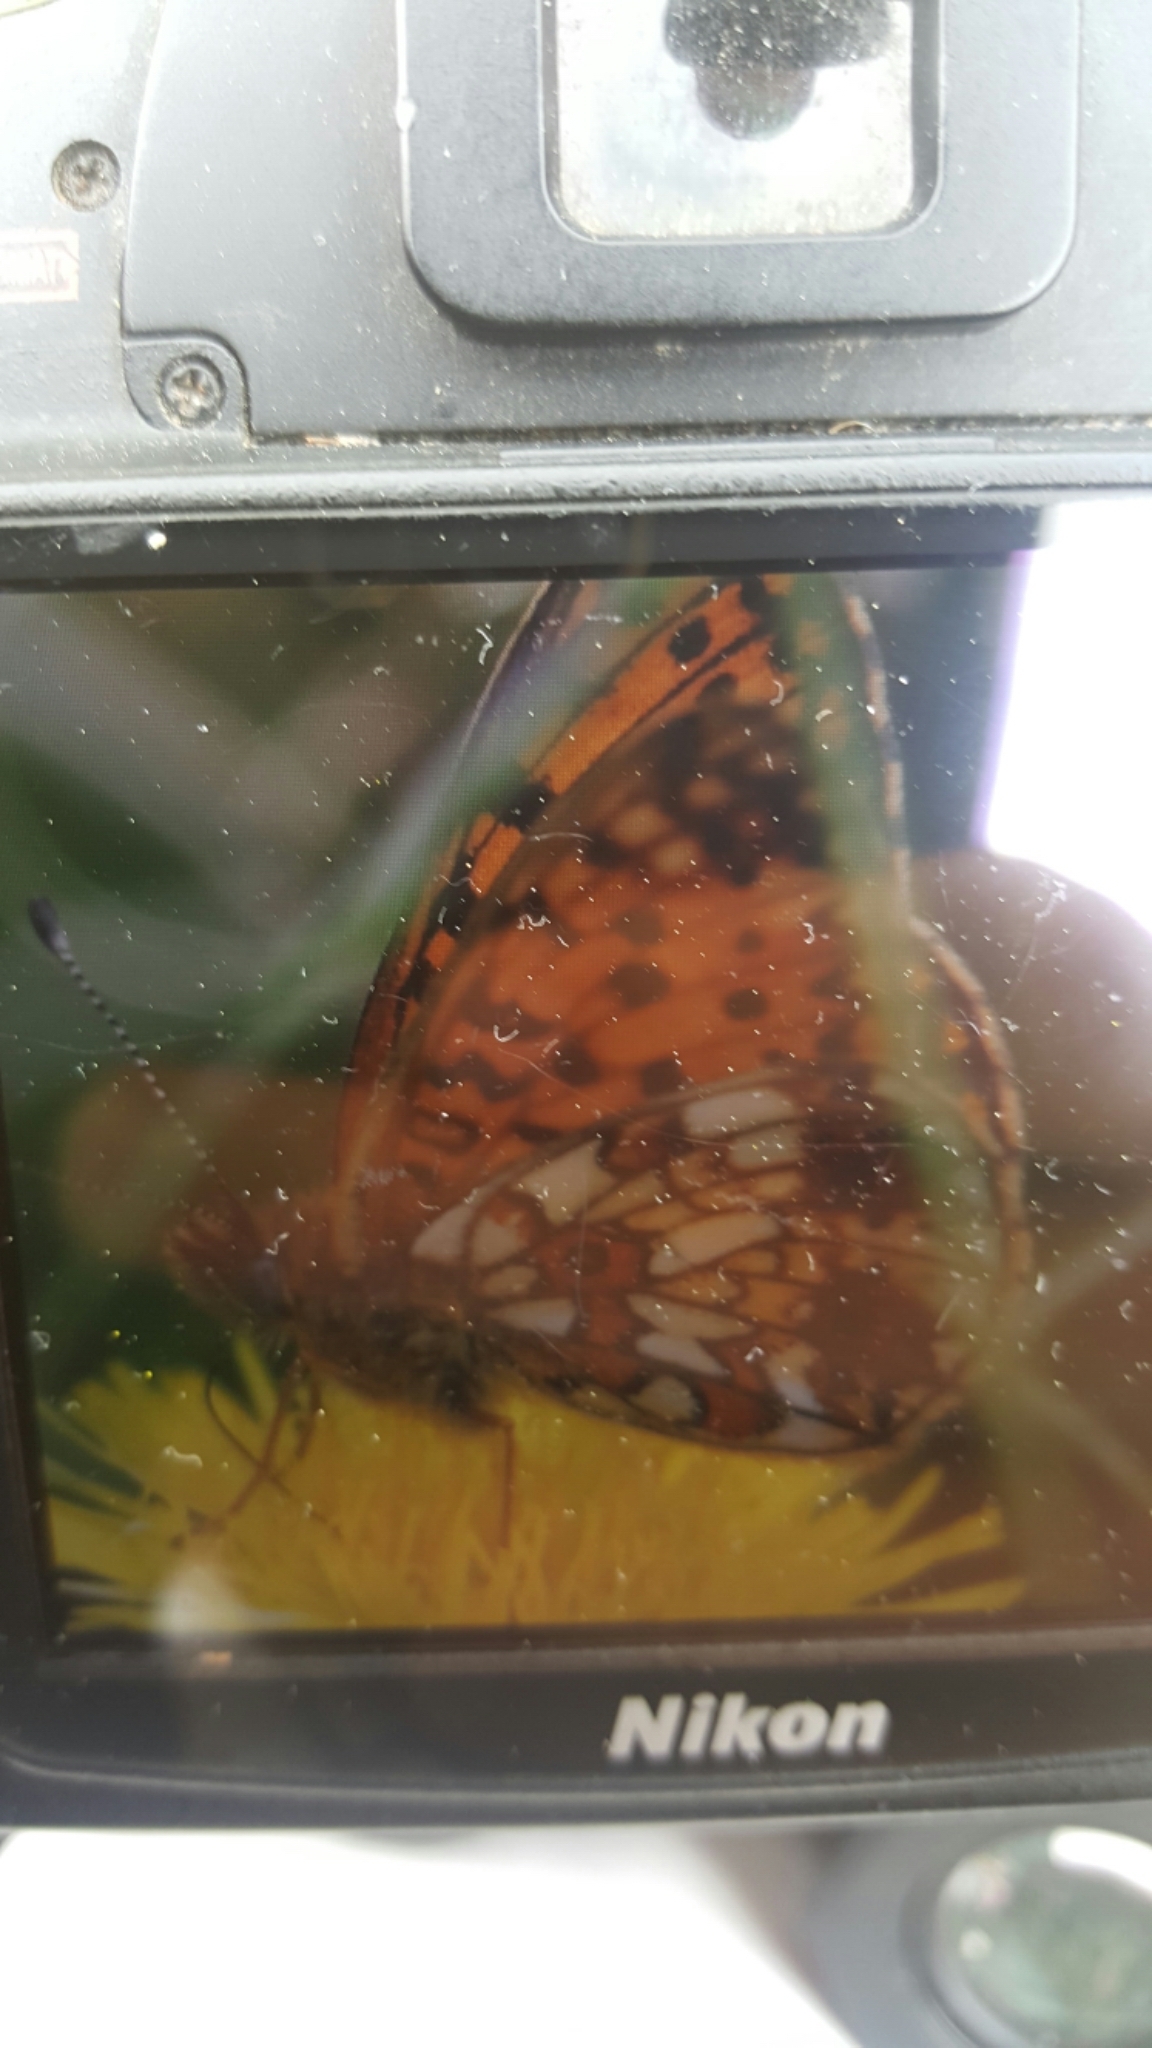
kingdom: Animalia
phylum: Arthropoda
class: Insecta
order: Lepidoptera
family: Nymphalidae
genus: Boloria
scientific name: Boloria selene
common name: Small pearl-bordered fritillary
